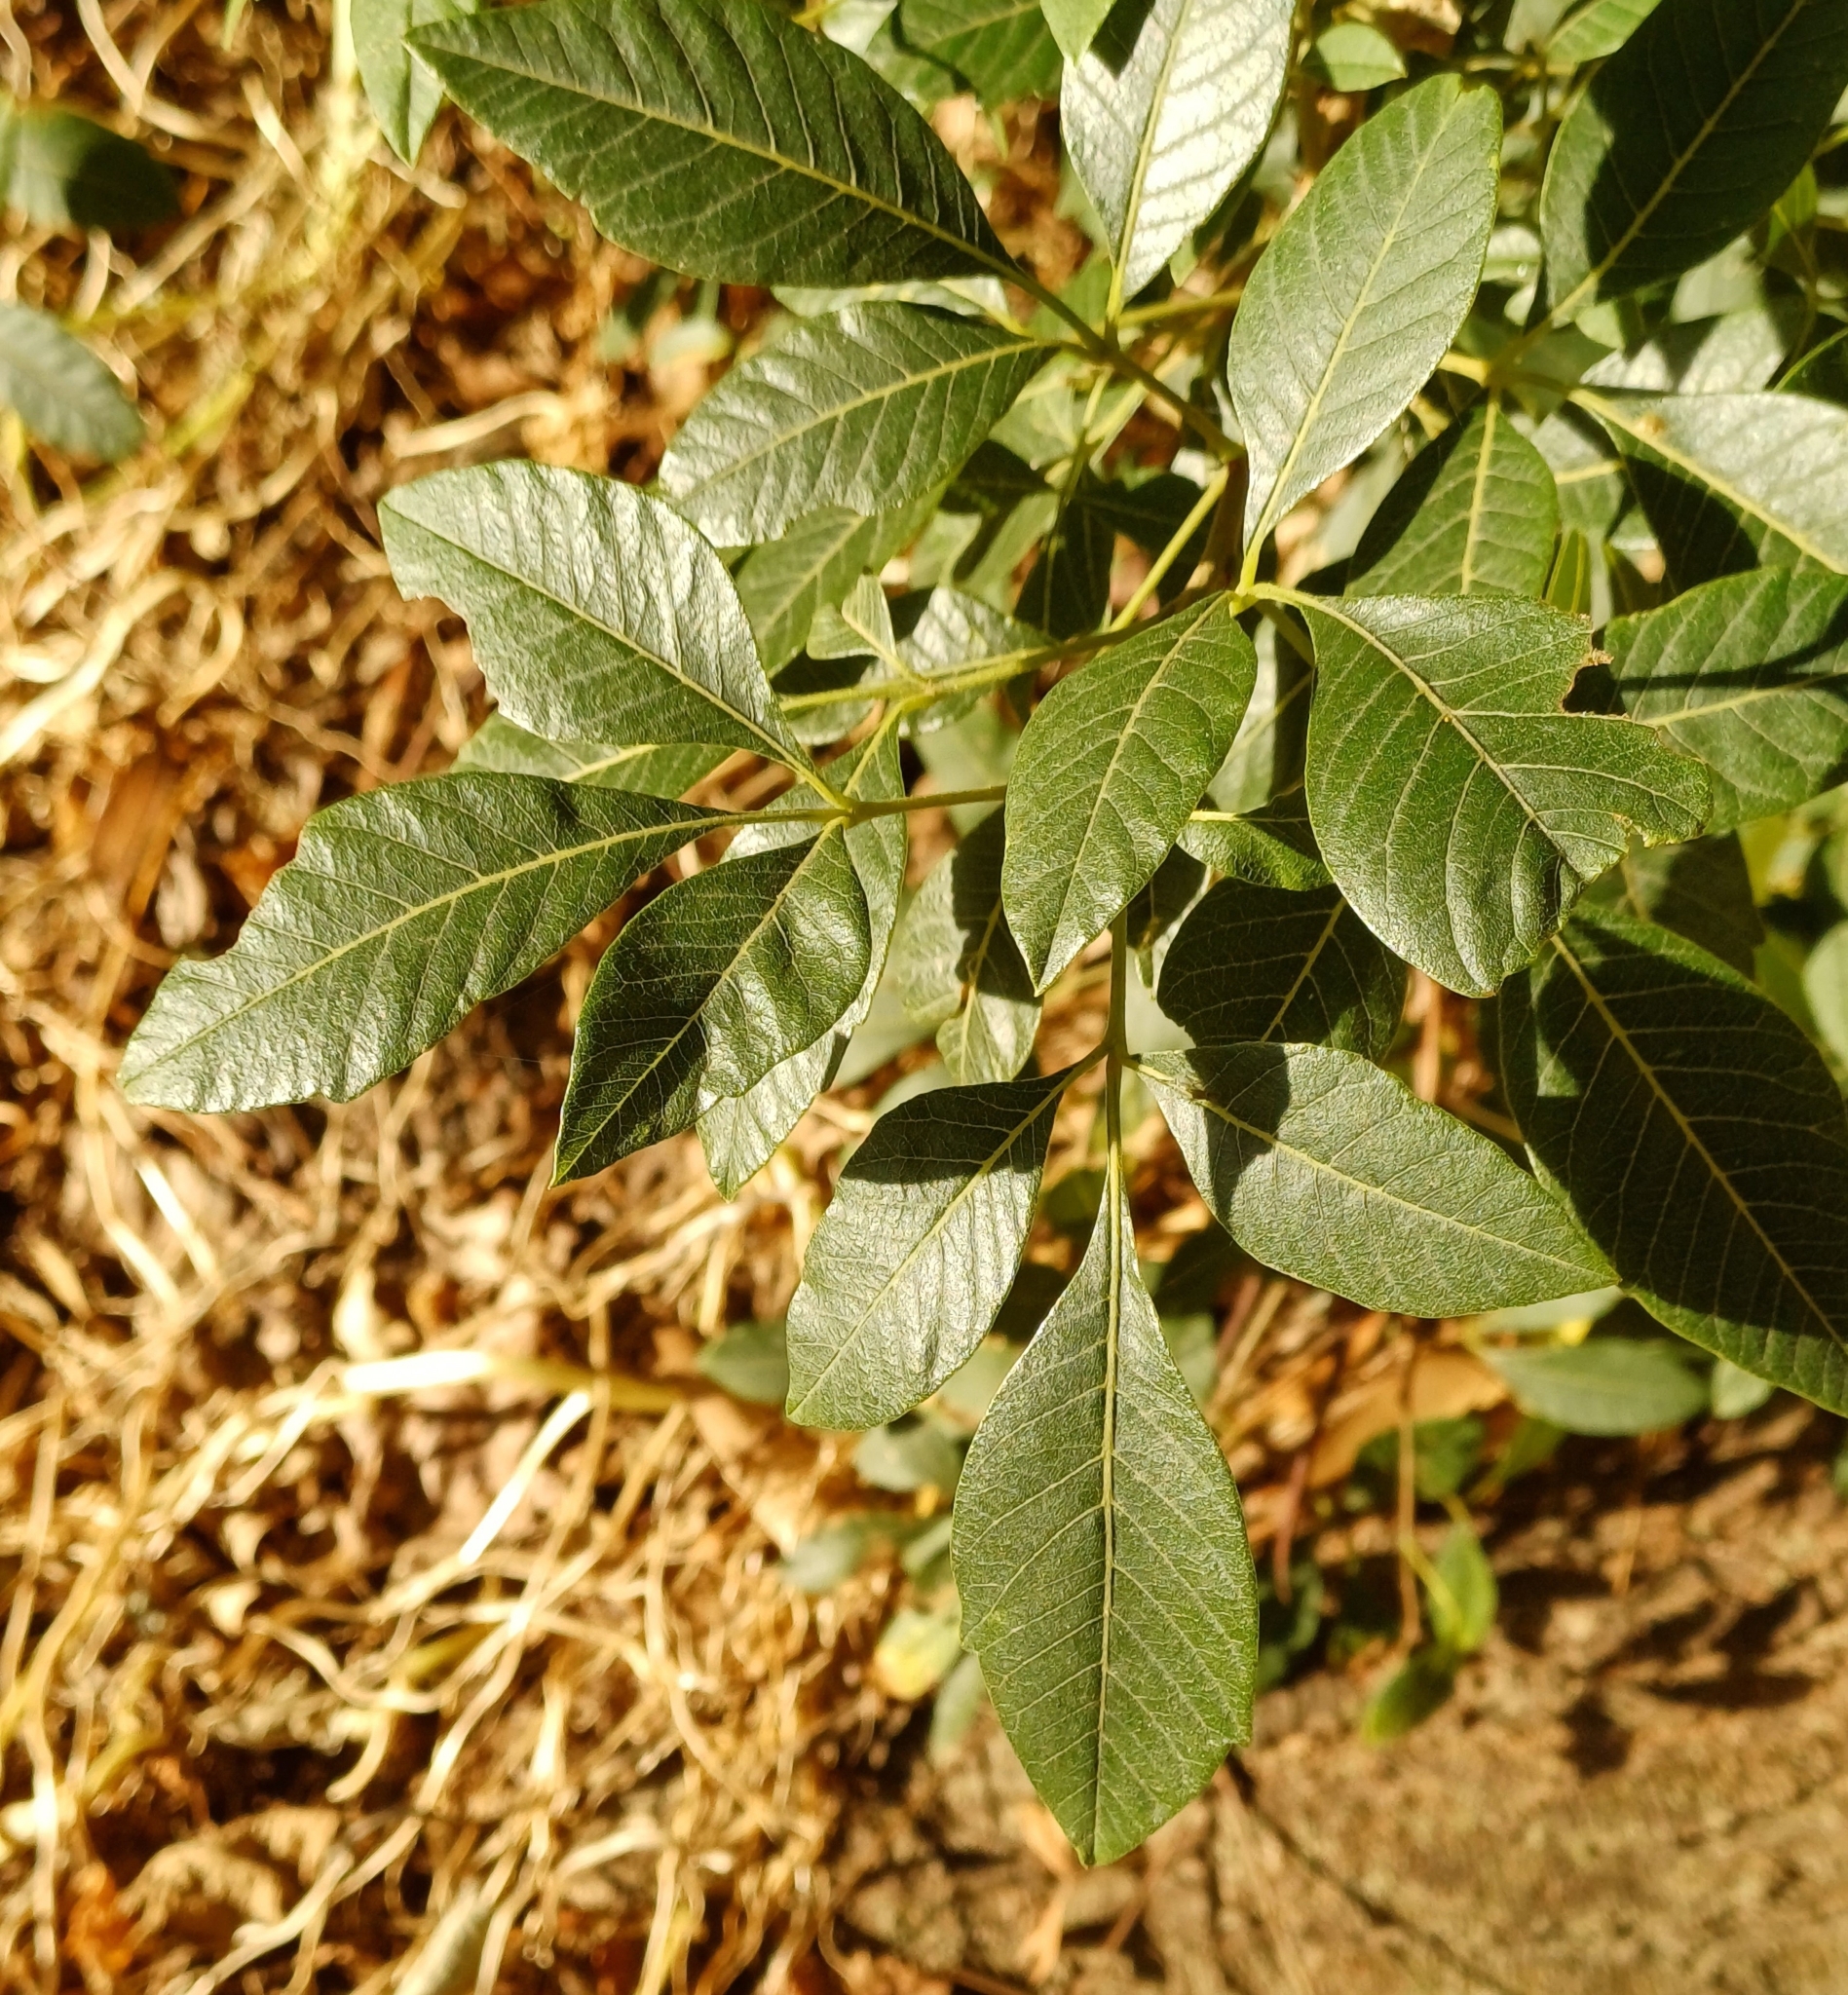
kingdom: Plantae
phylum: Tracheophyta
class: Magnoliopsida
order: Sapindales
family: Anacardiaceae
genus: Searsia
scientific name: Searsia tomentosa
